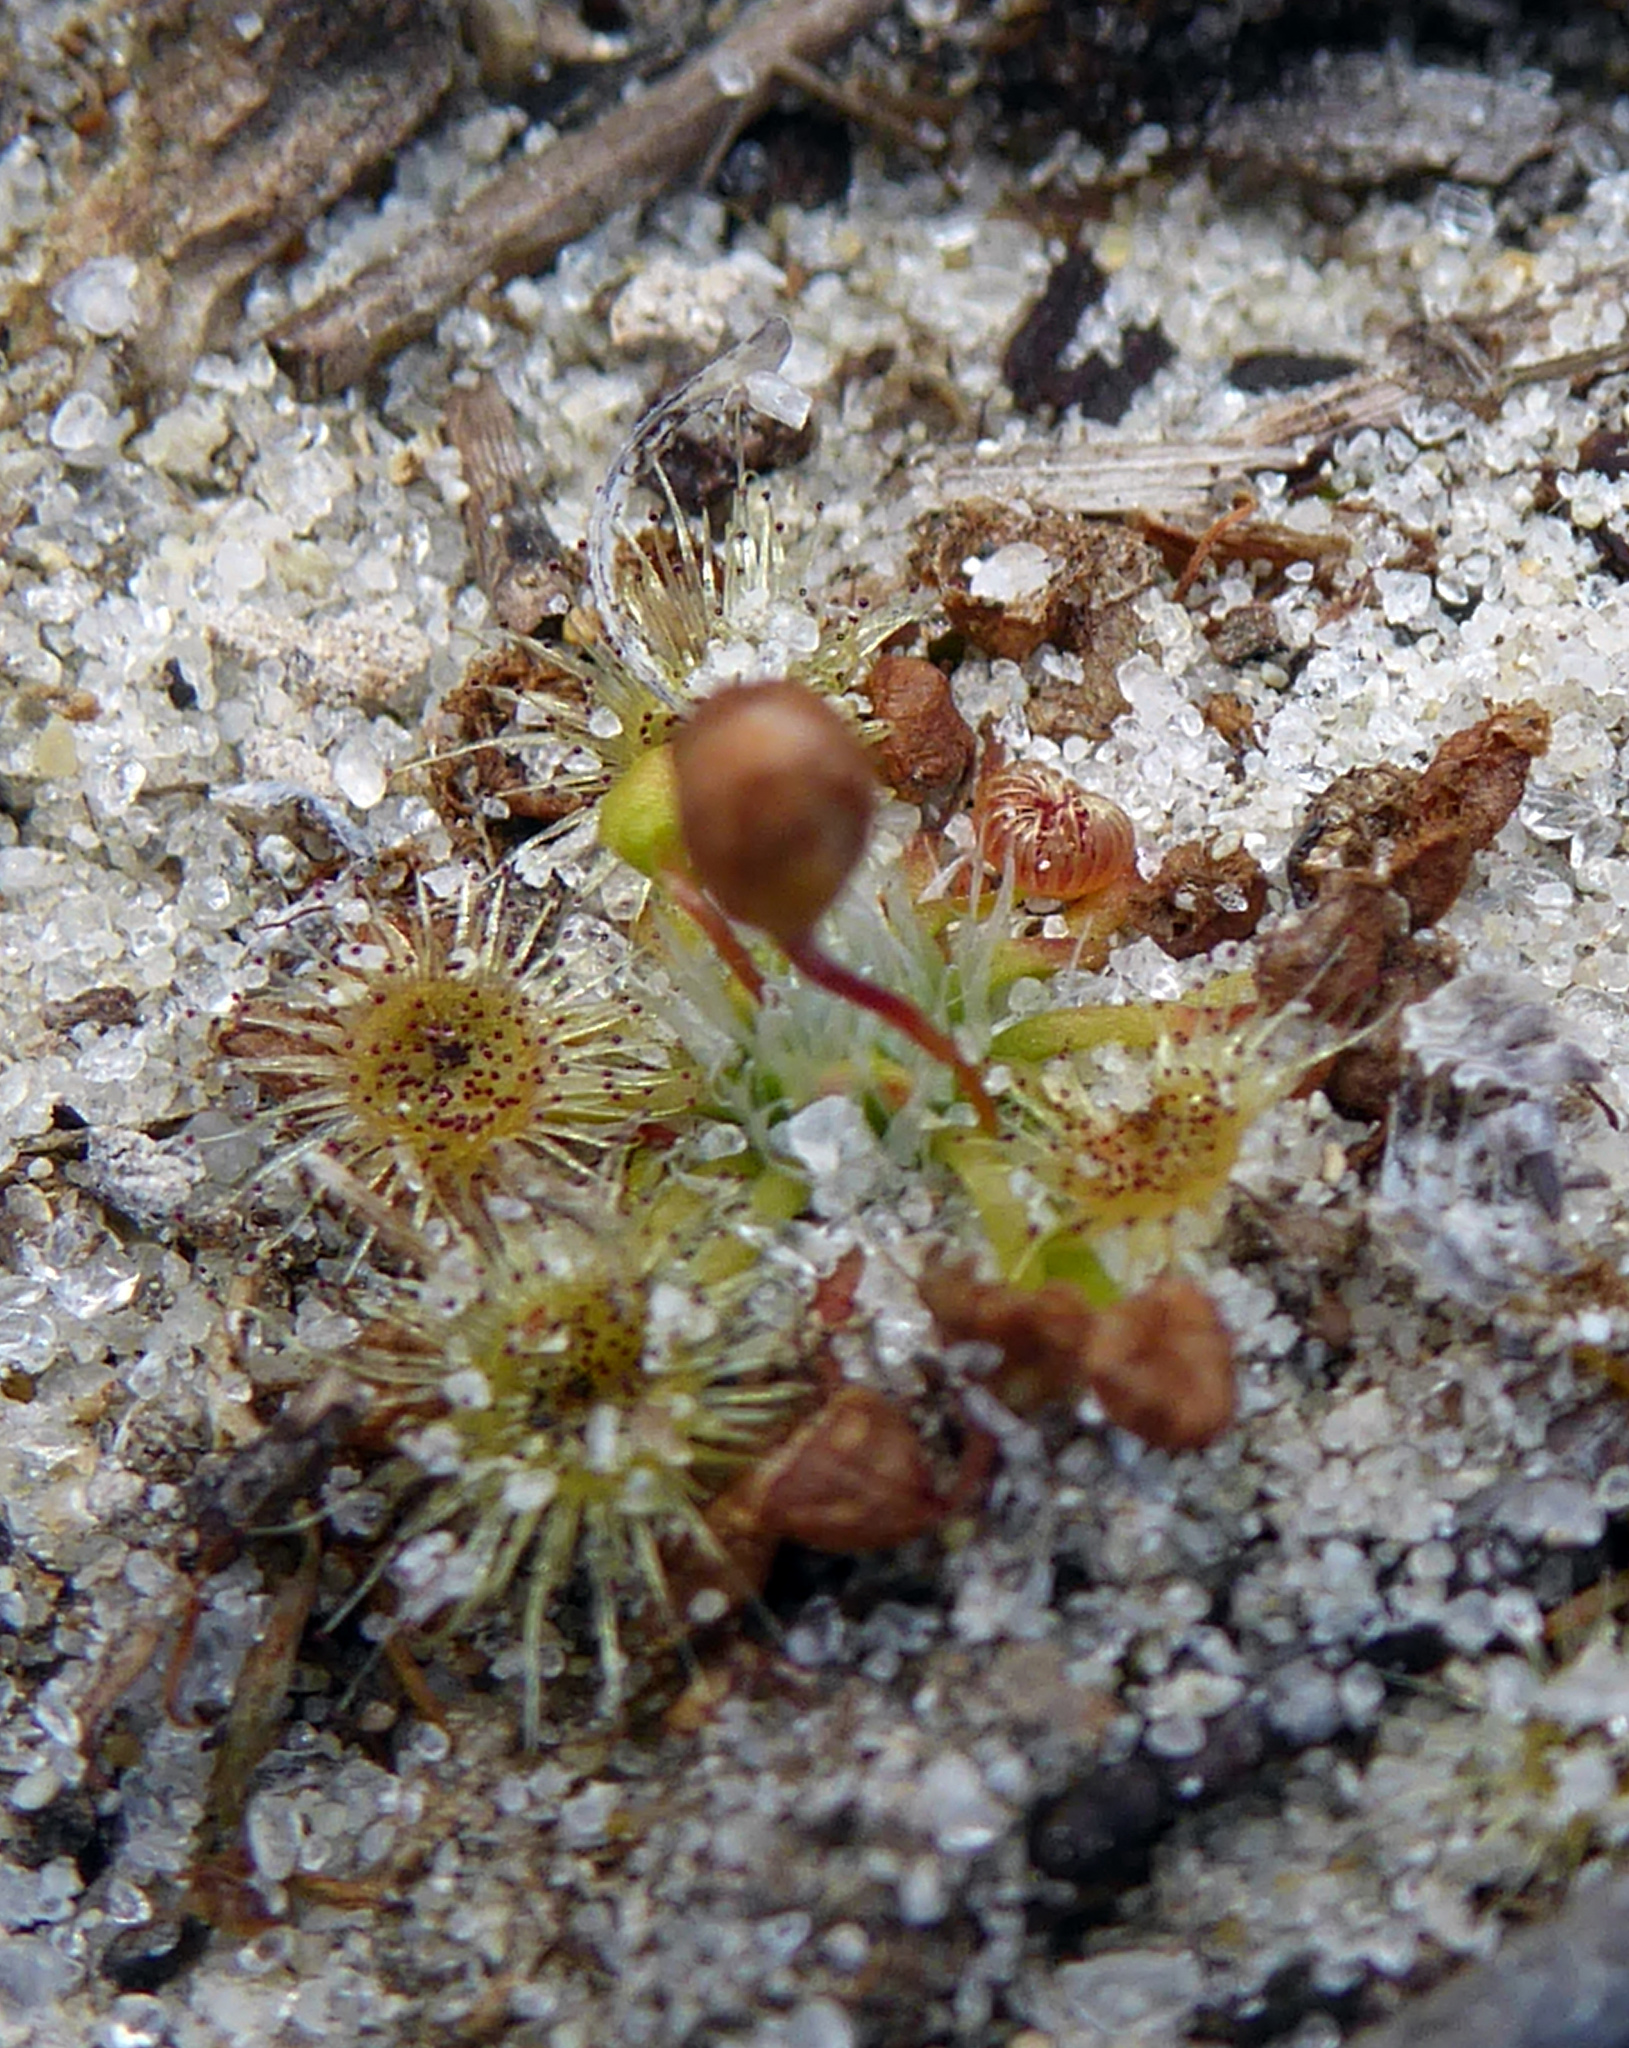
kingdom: Plantae
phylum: Tracheophyta
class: Magnoliopsida
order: Caryophyllales
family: Droseraceae
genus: Drosera
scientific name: Drosera pygmaea
